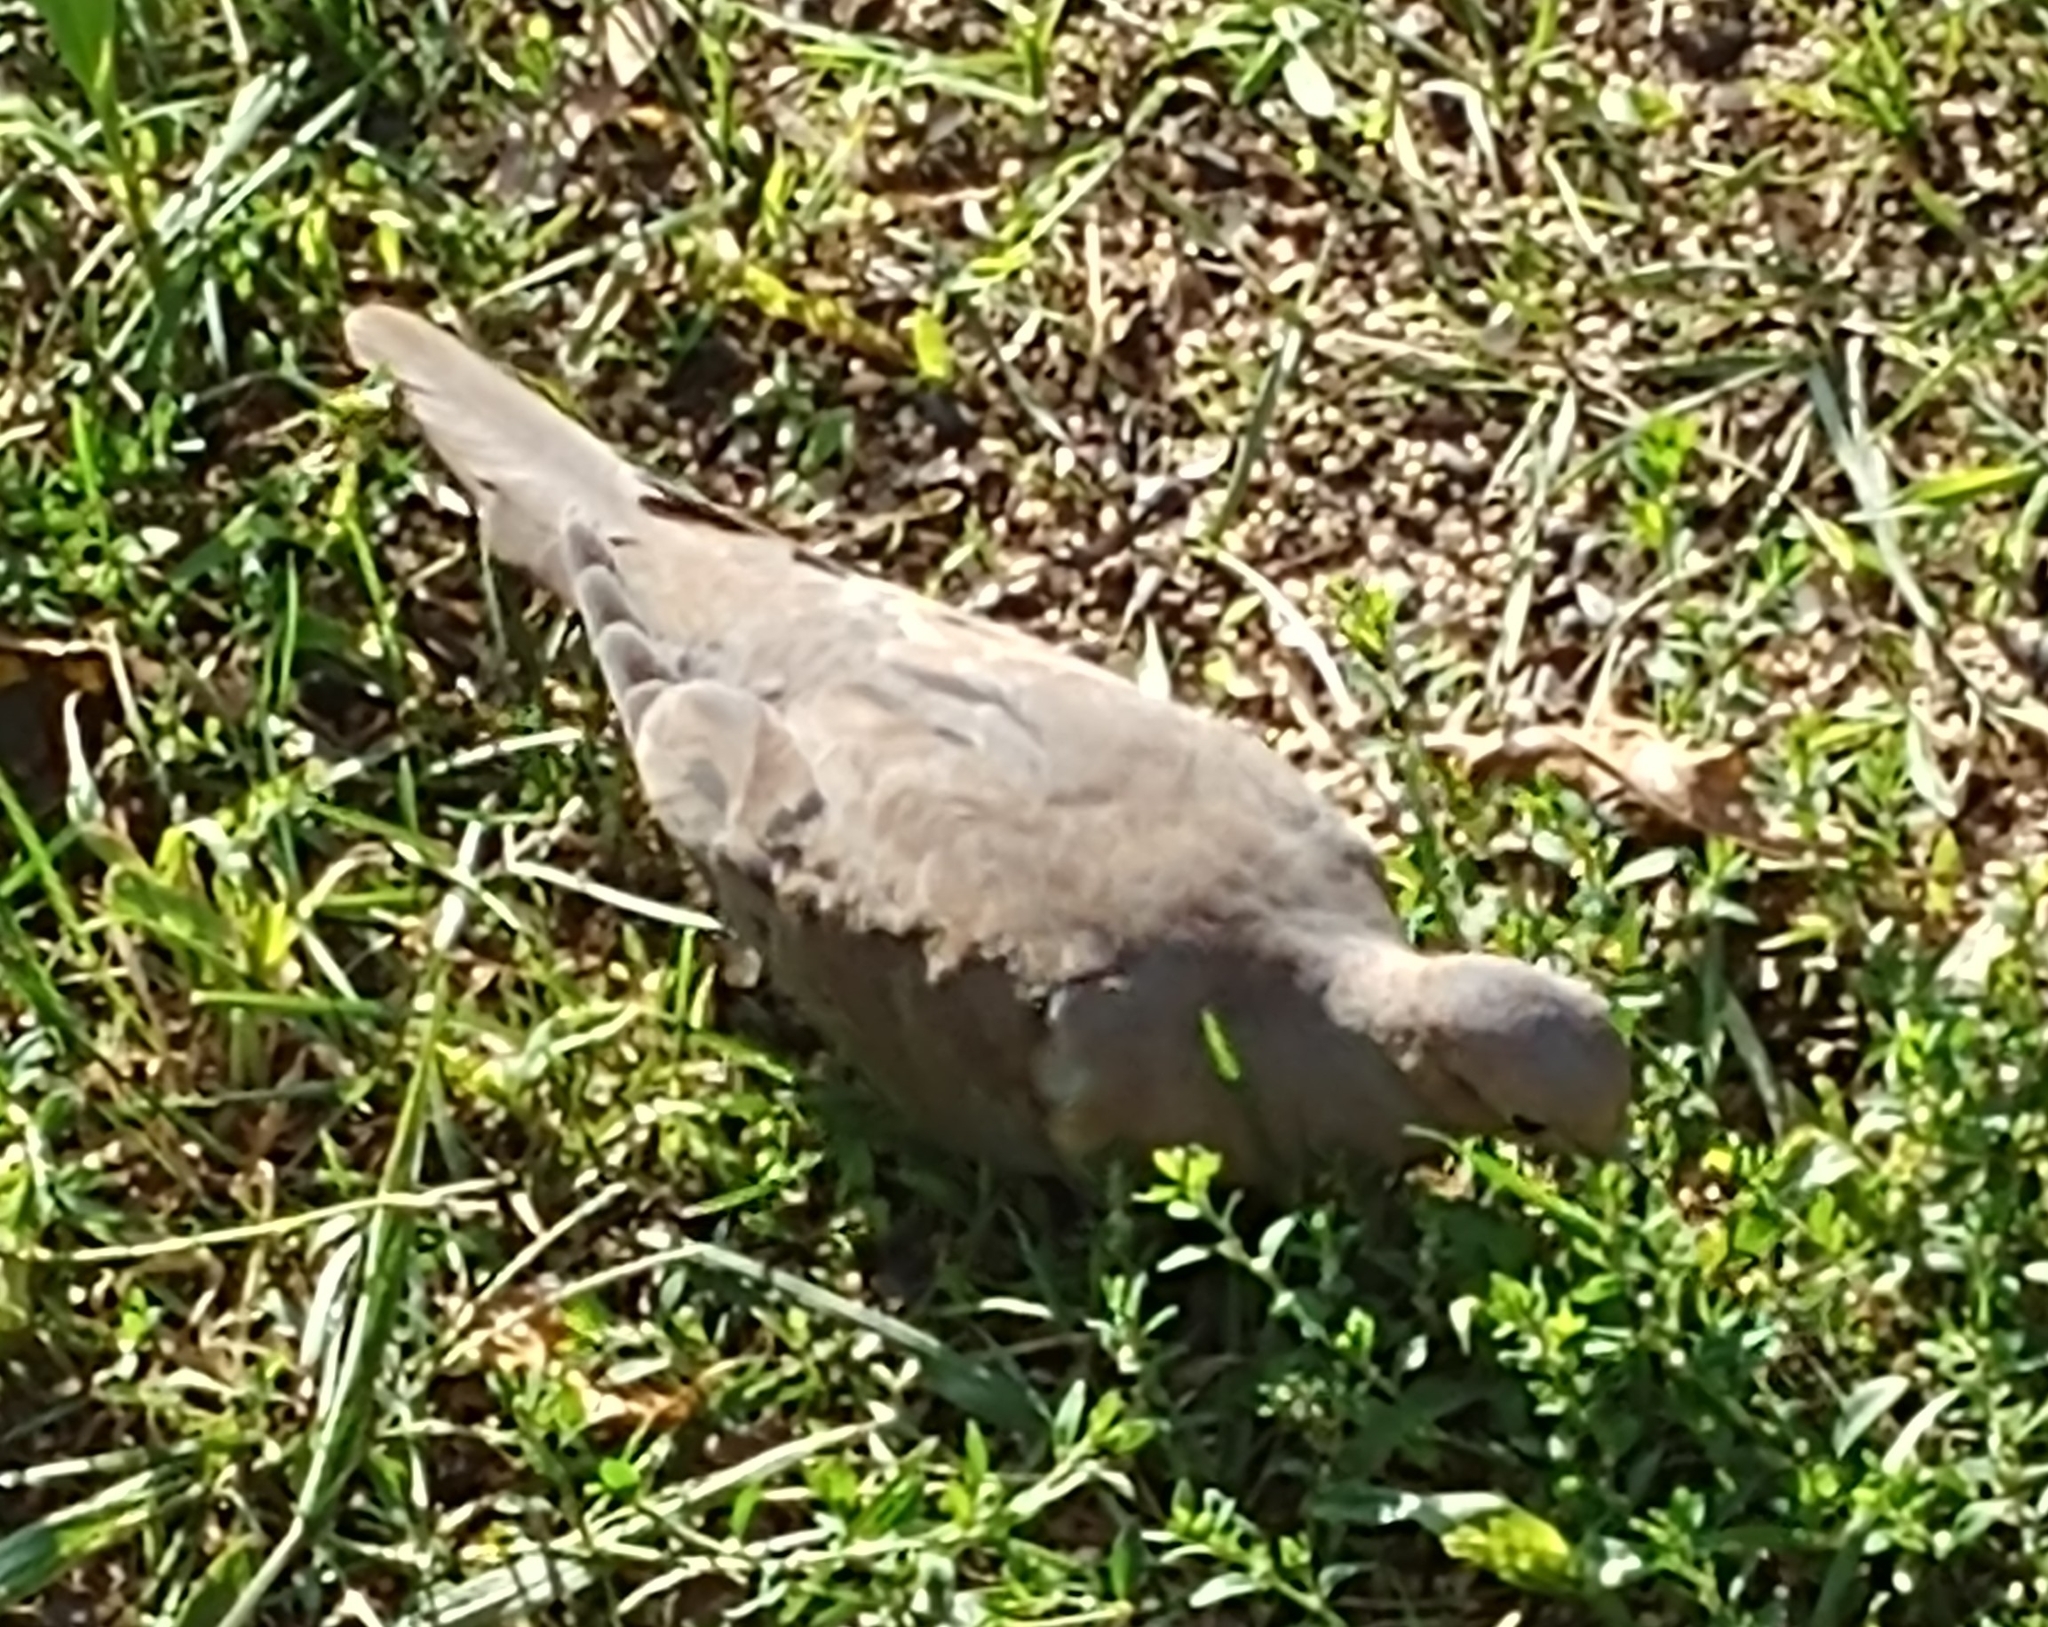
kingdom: Animalia
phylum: Chordata
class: Aves
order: Columbiformes
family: Columbidae
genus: Zenaida
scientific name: Zenaida macroura
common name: Mourning dove
